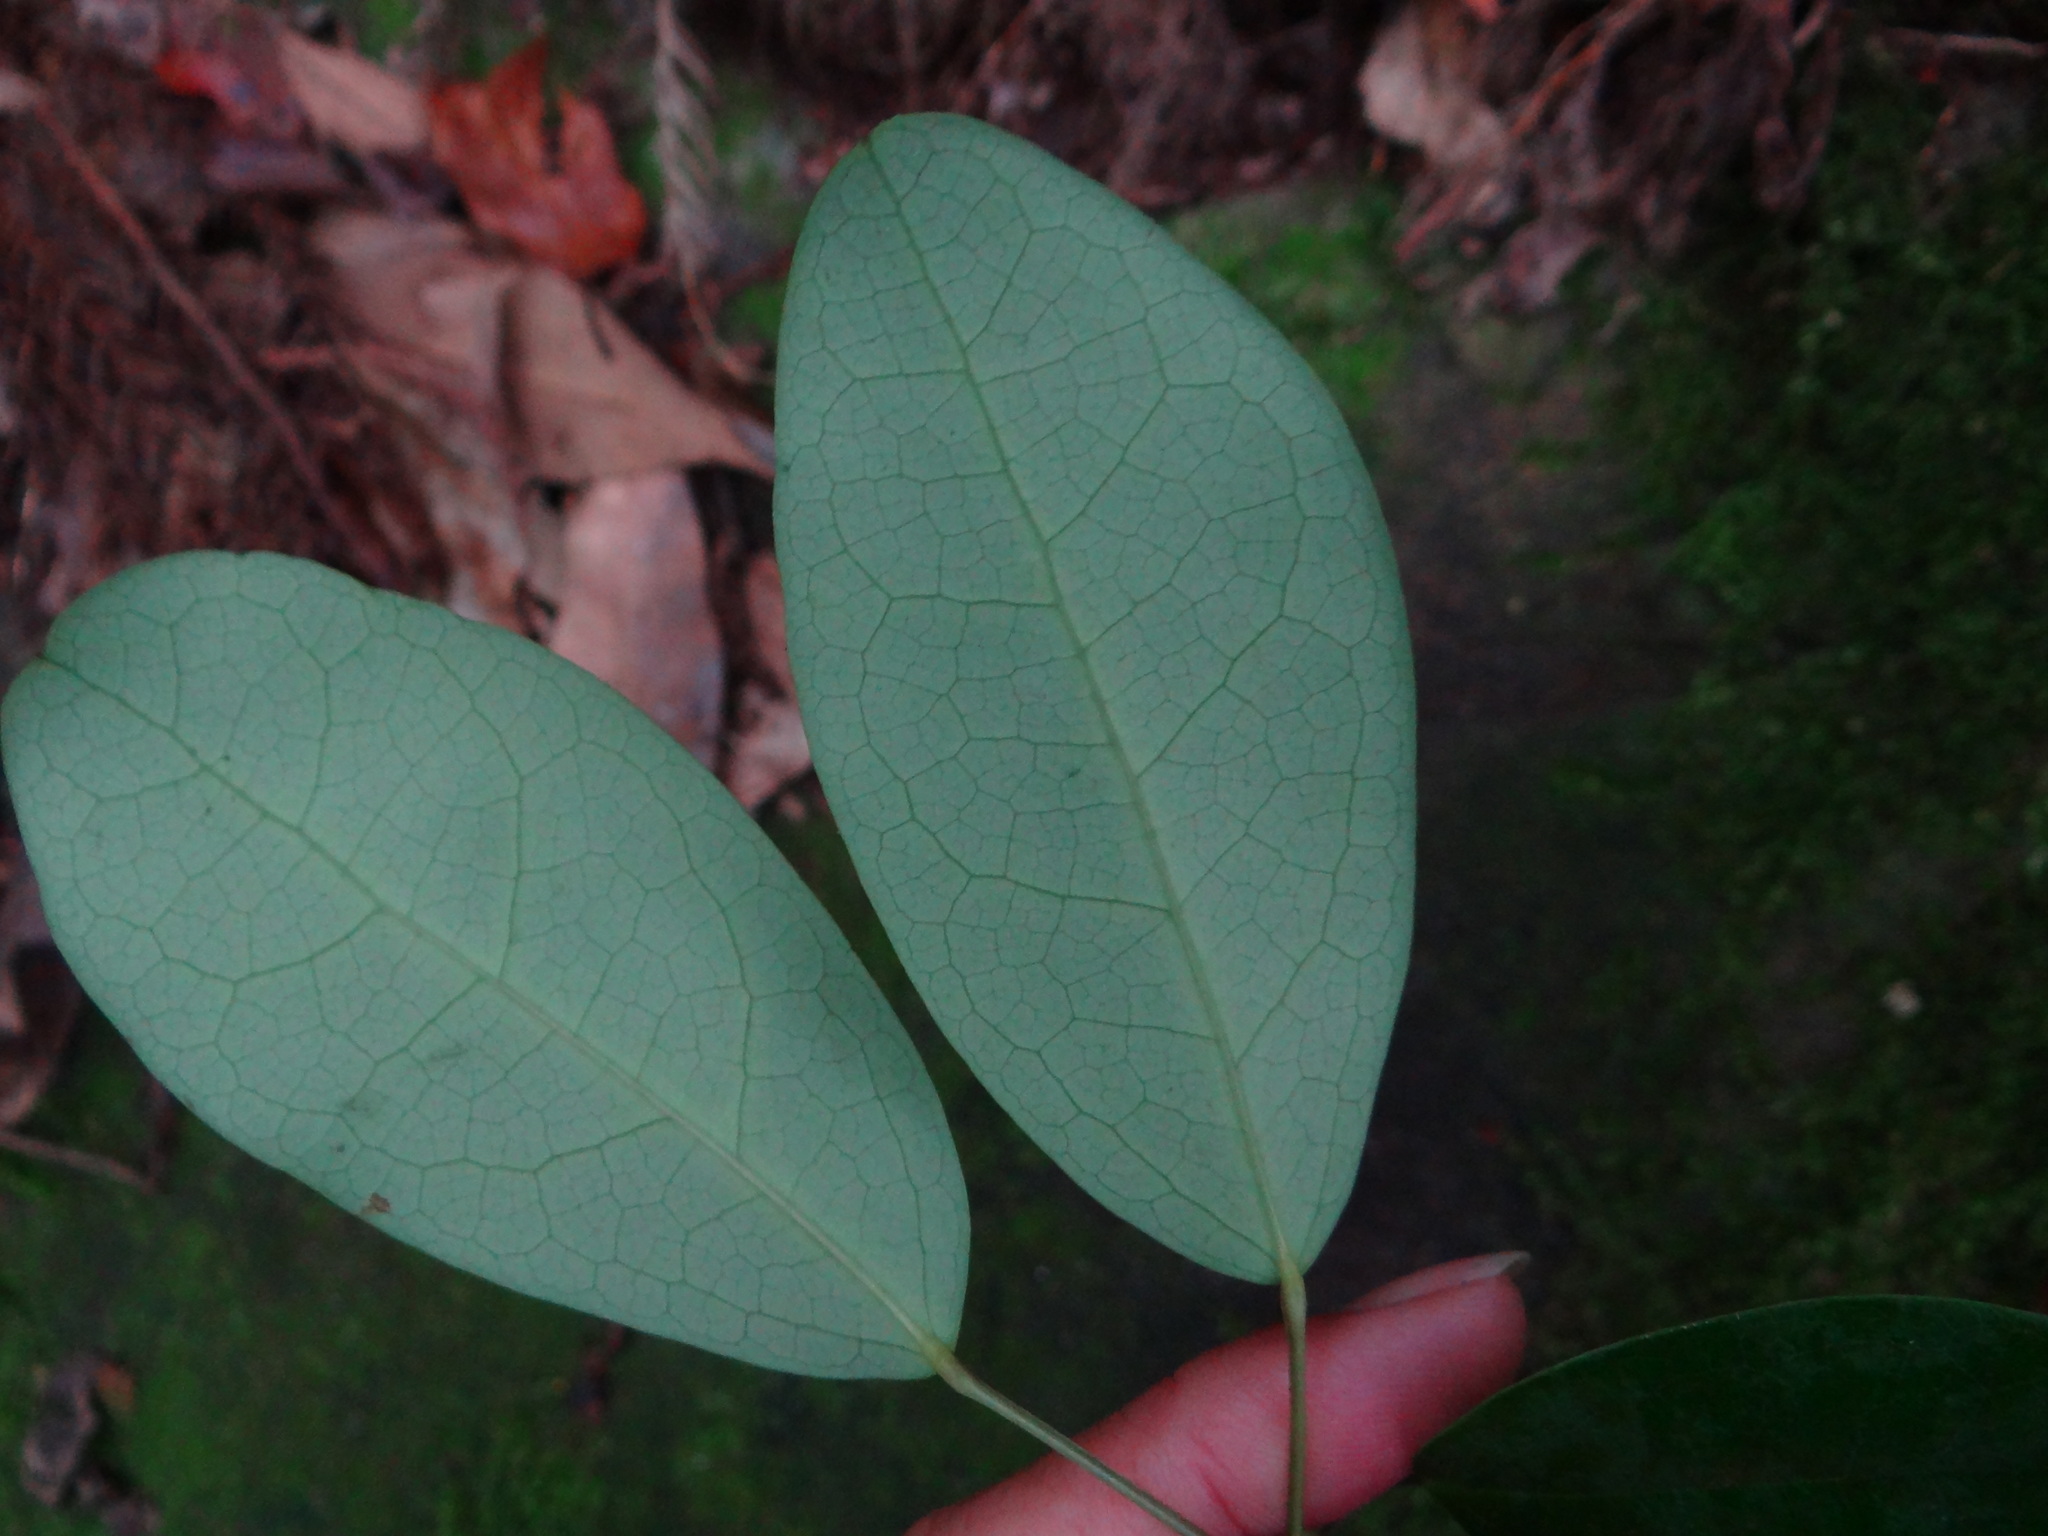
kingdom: Plantae
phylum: Tracheophyta
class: Magnoliopsida
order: Ranunculales
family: Lardizabalaceae
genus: Stauntonia
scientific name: Stauntonia obovata
